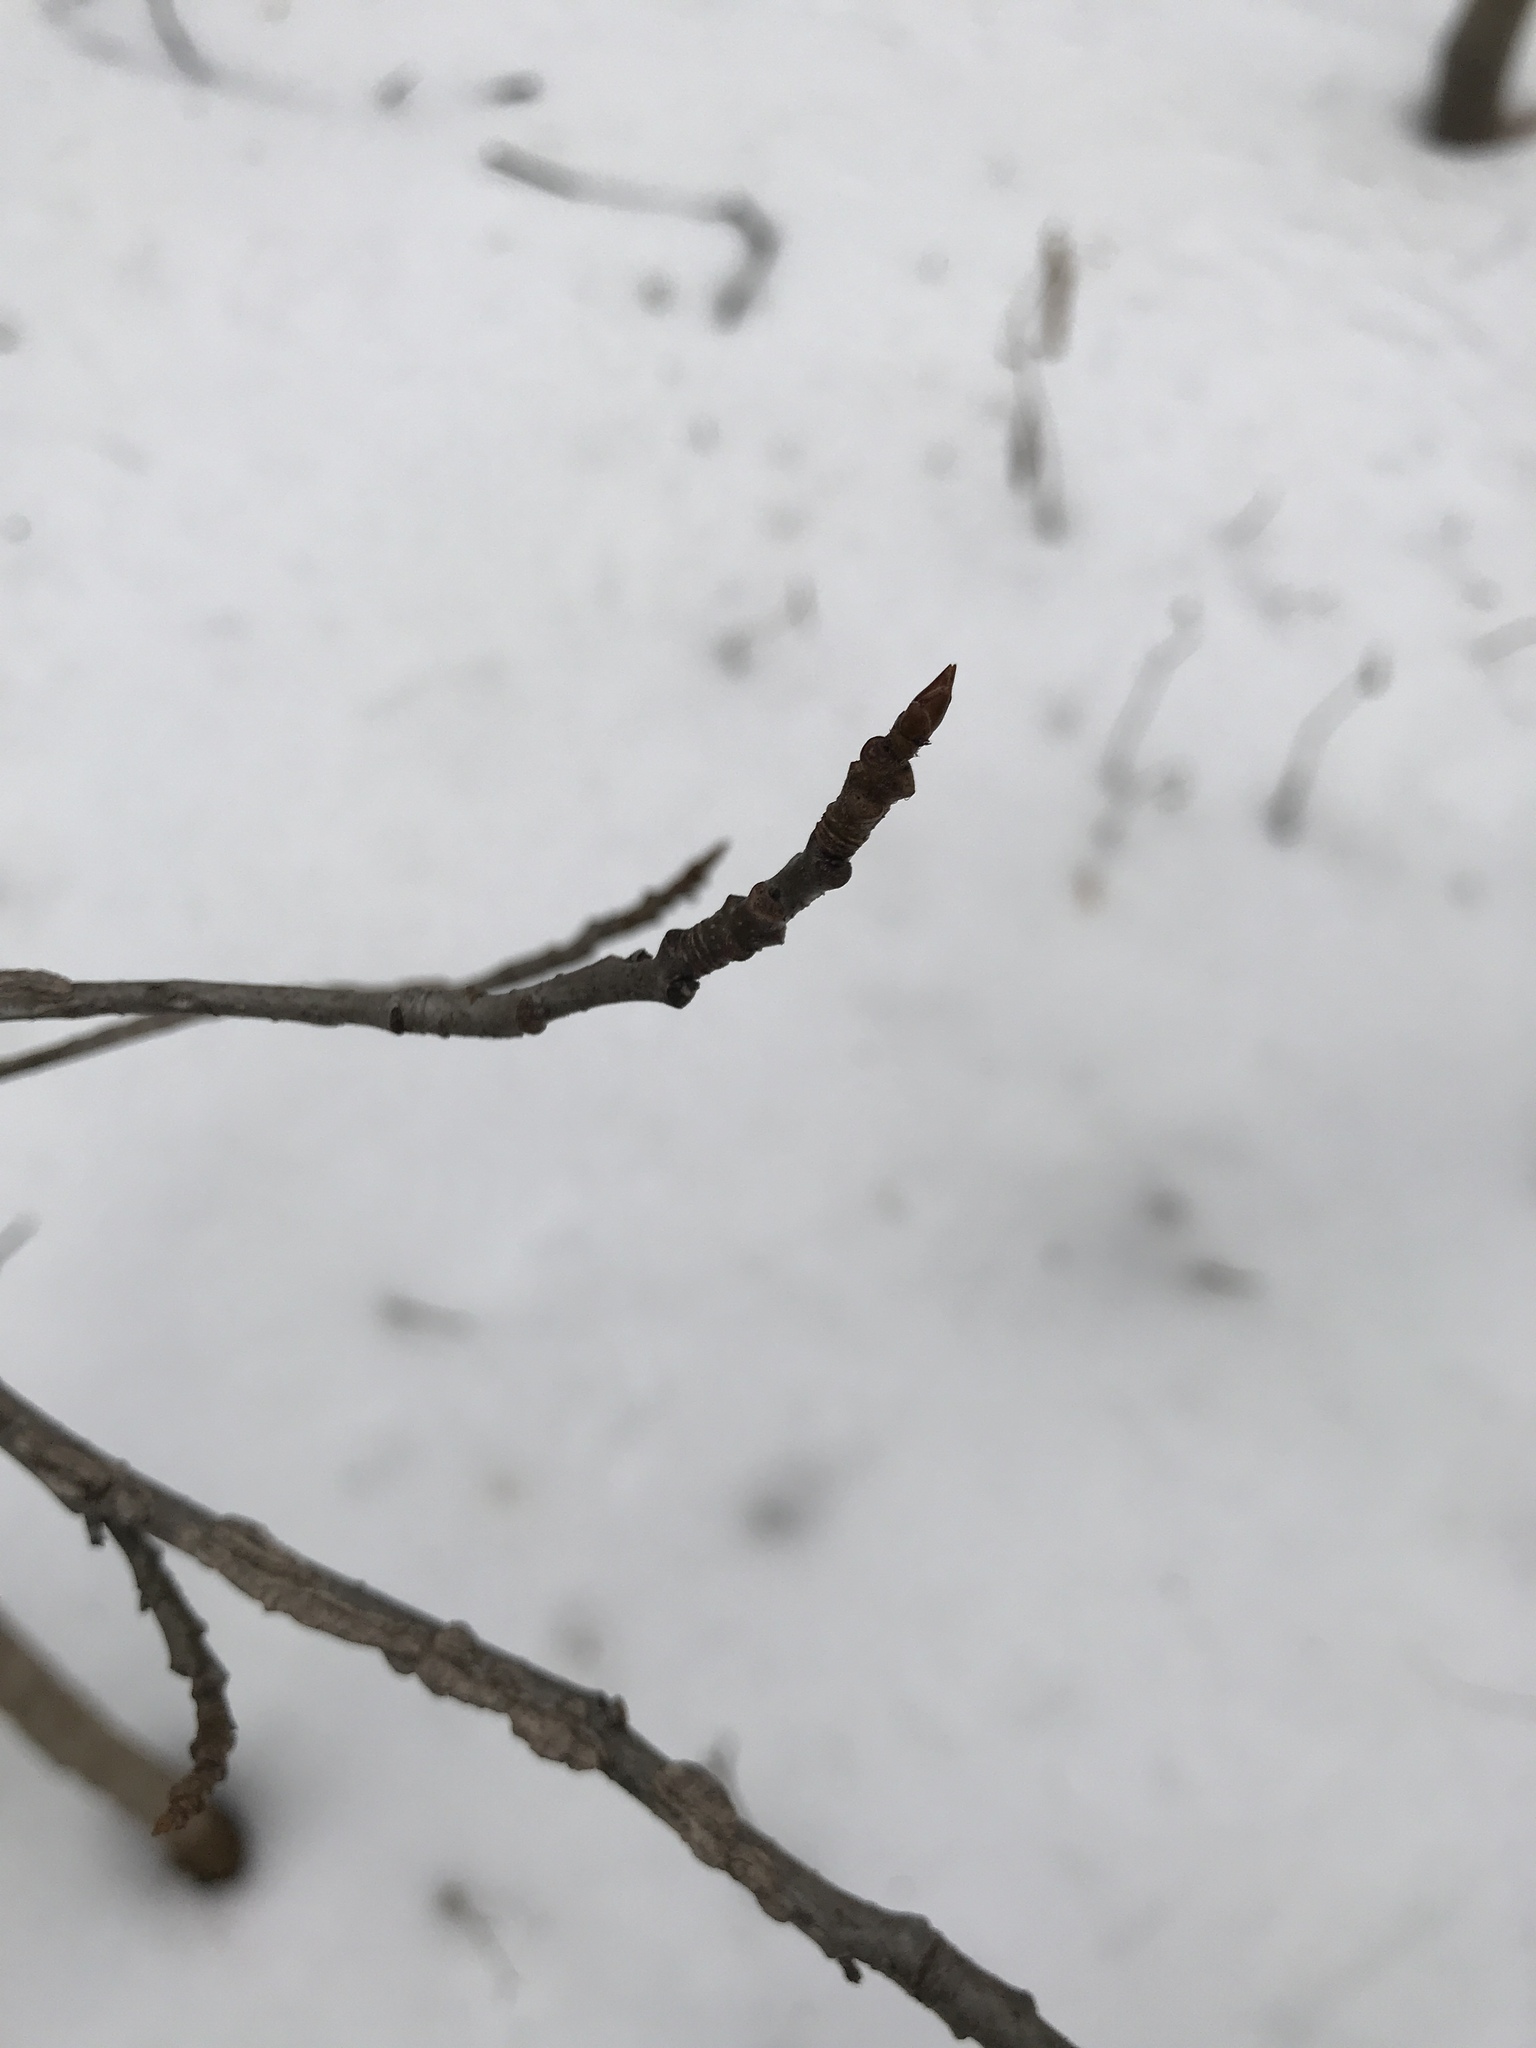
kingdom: Plantae
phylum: Tracheophyta
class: Magnoliopsida
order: Saxifragales
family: Altingiaceae
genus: Liquidambar
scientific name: Liquidambar styraciflua
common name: Sweet gum
